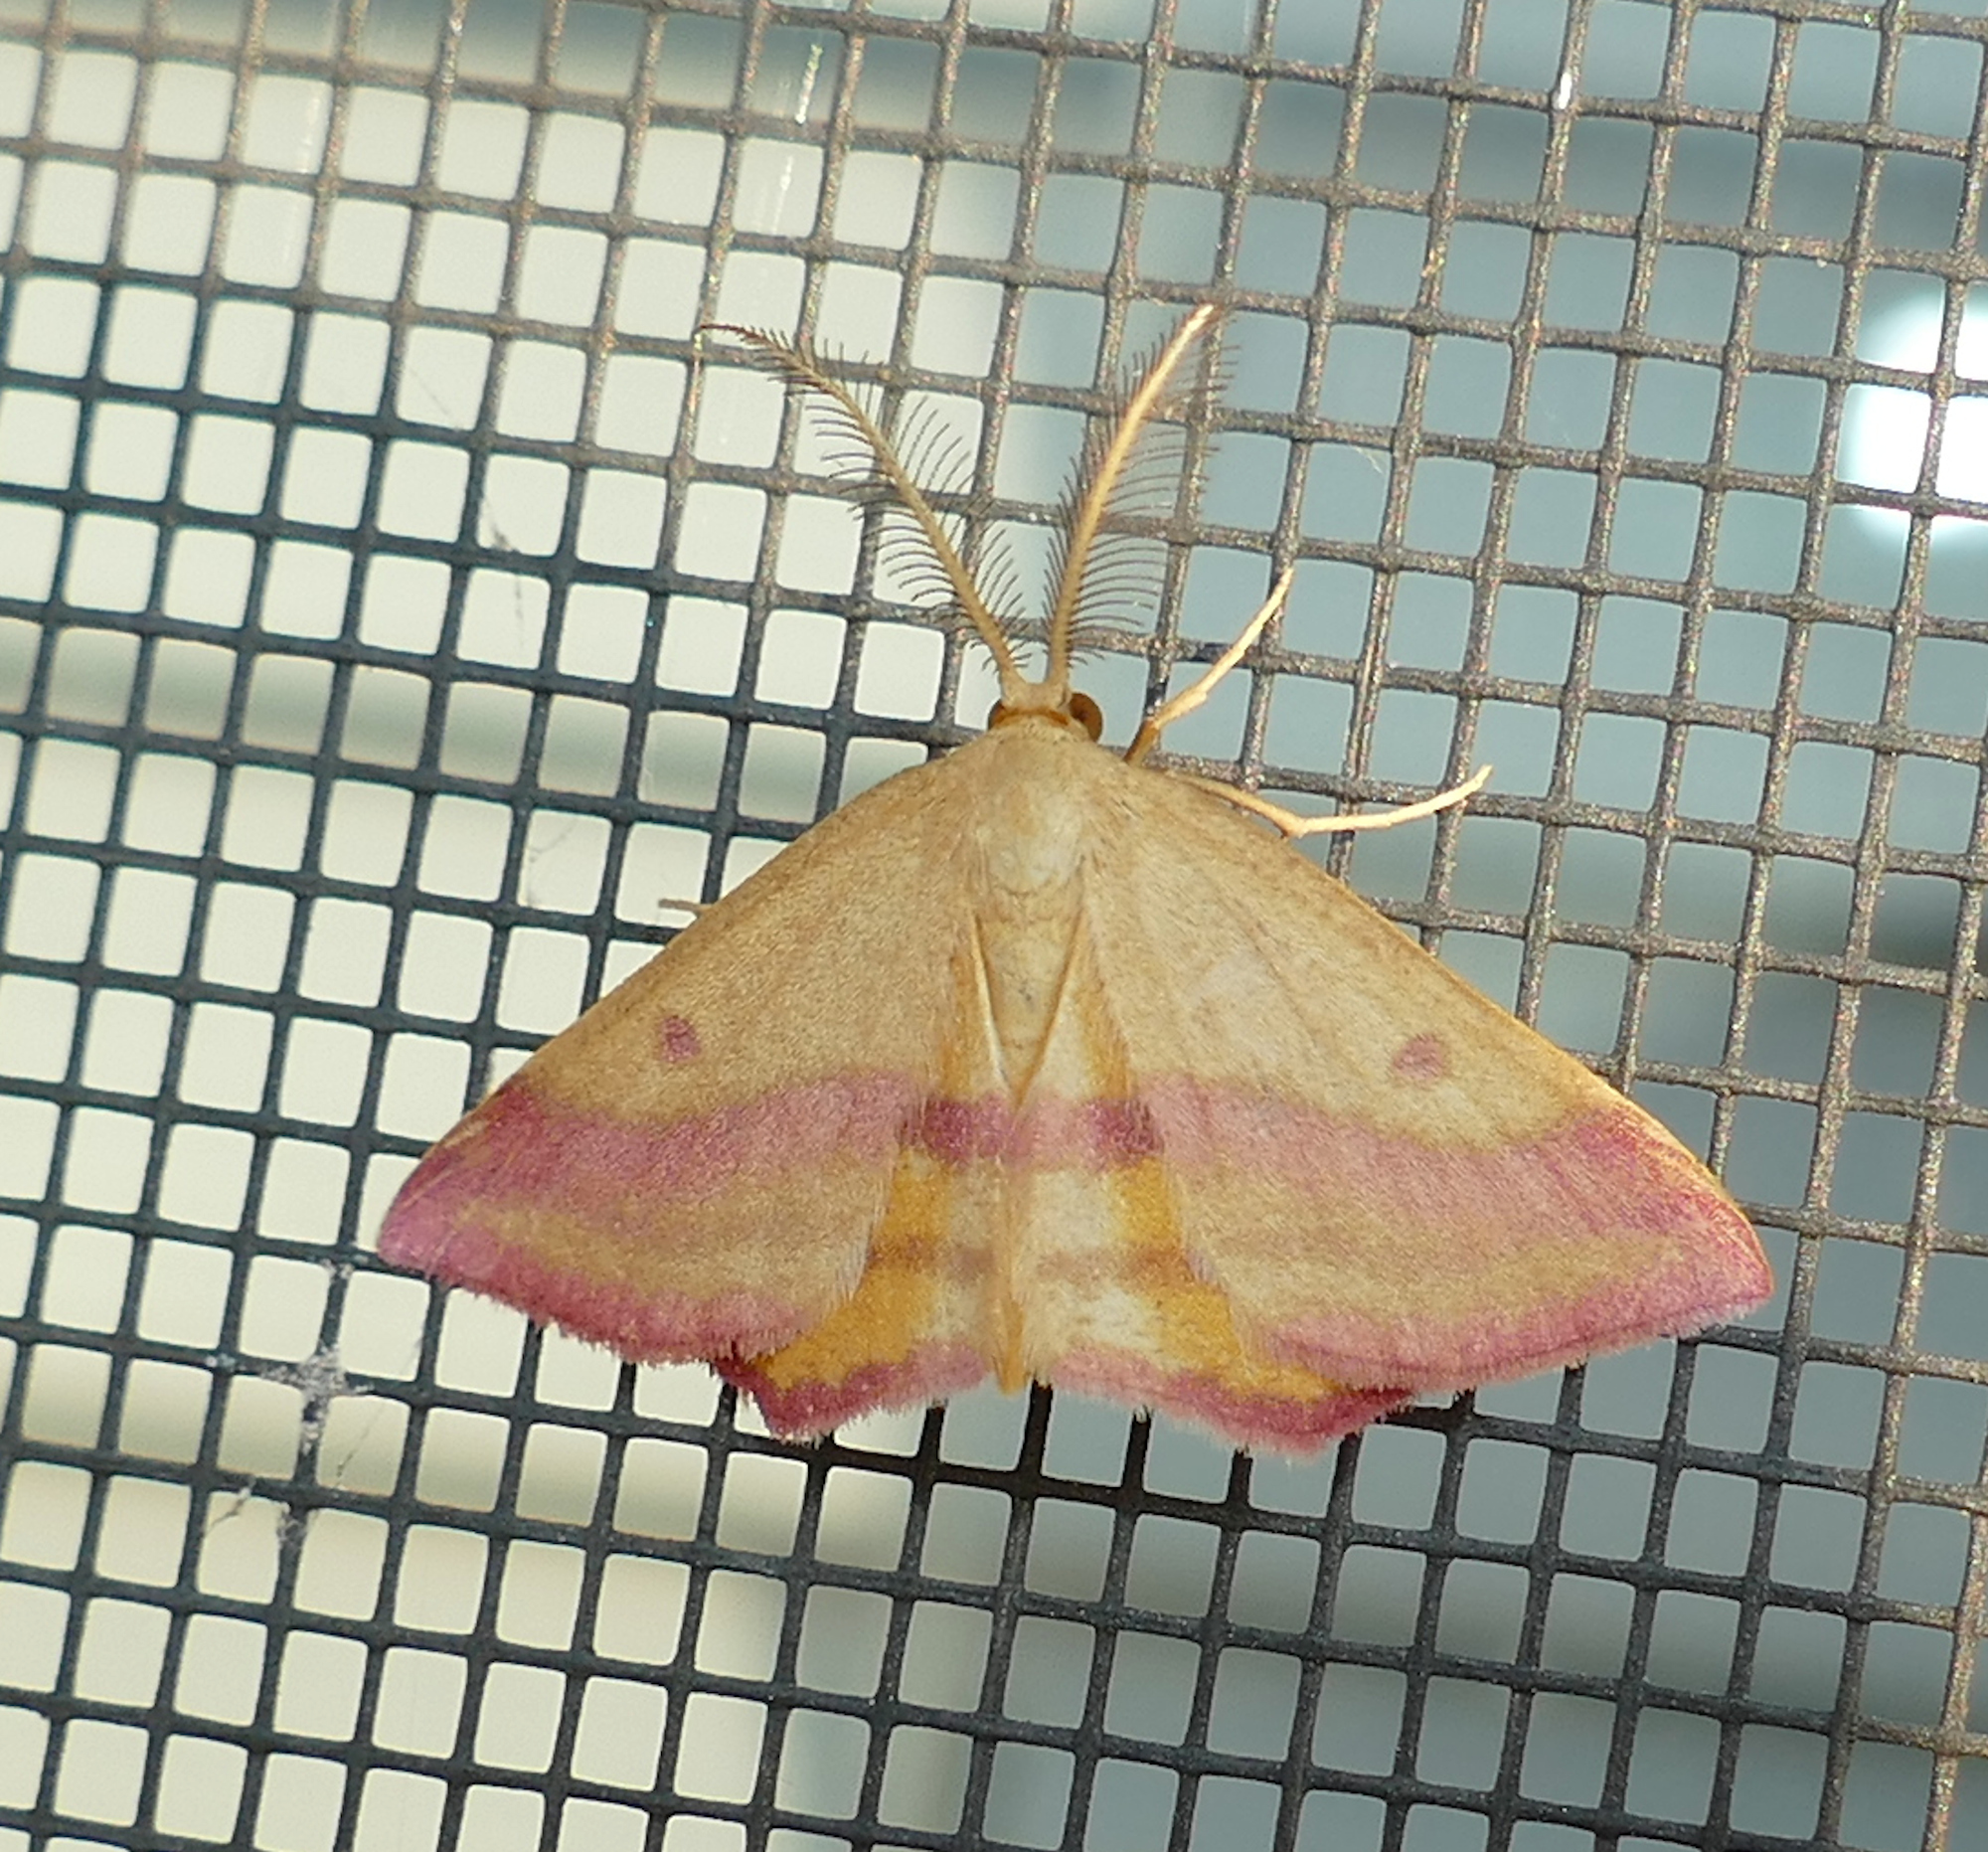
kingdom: Animalia
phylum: Arthropoda
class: Insecta
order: Lepidoptera
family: Geometridae
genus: Haematopis
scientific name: Haematopis grataria
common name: Chickweed geometer
